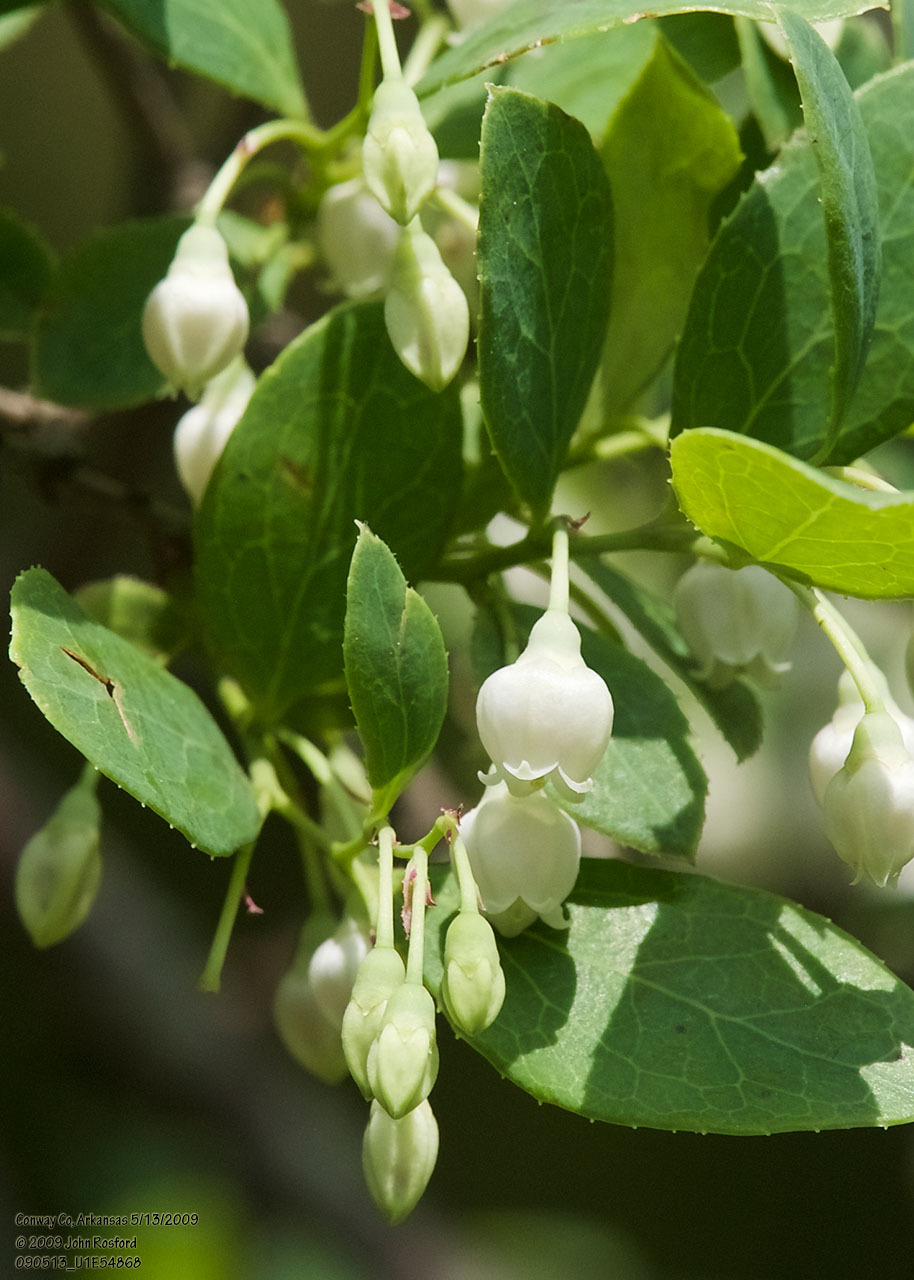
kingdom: Plantae
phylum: Tracheophyta
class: Magnoliopsida
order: Ericales
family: Ericaceae
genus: Vaccinium
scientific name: Vaccinium arboreum
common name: Farkleberry
